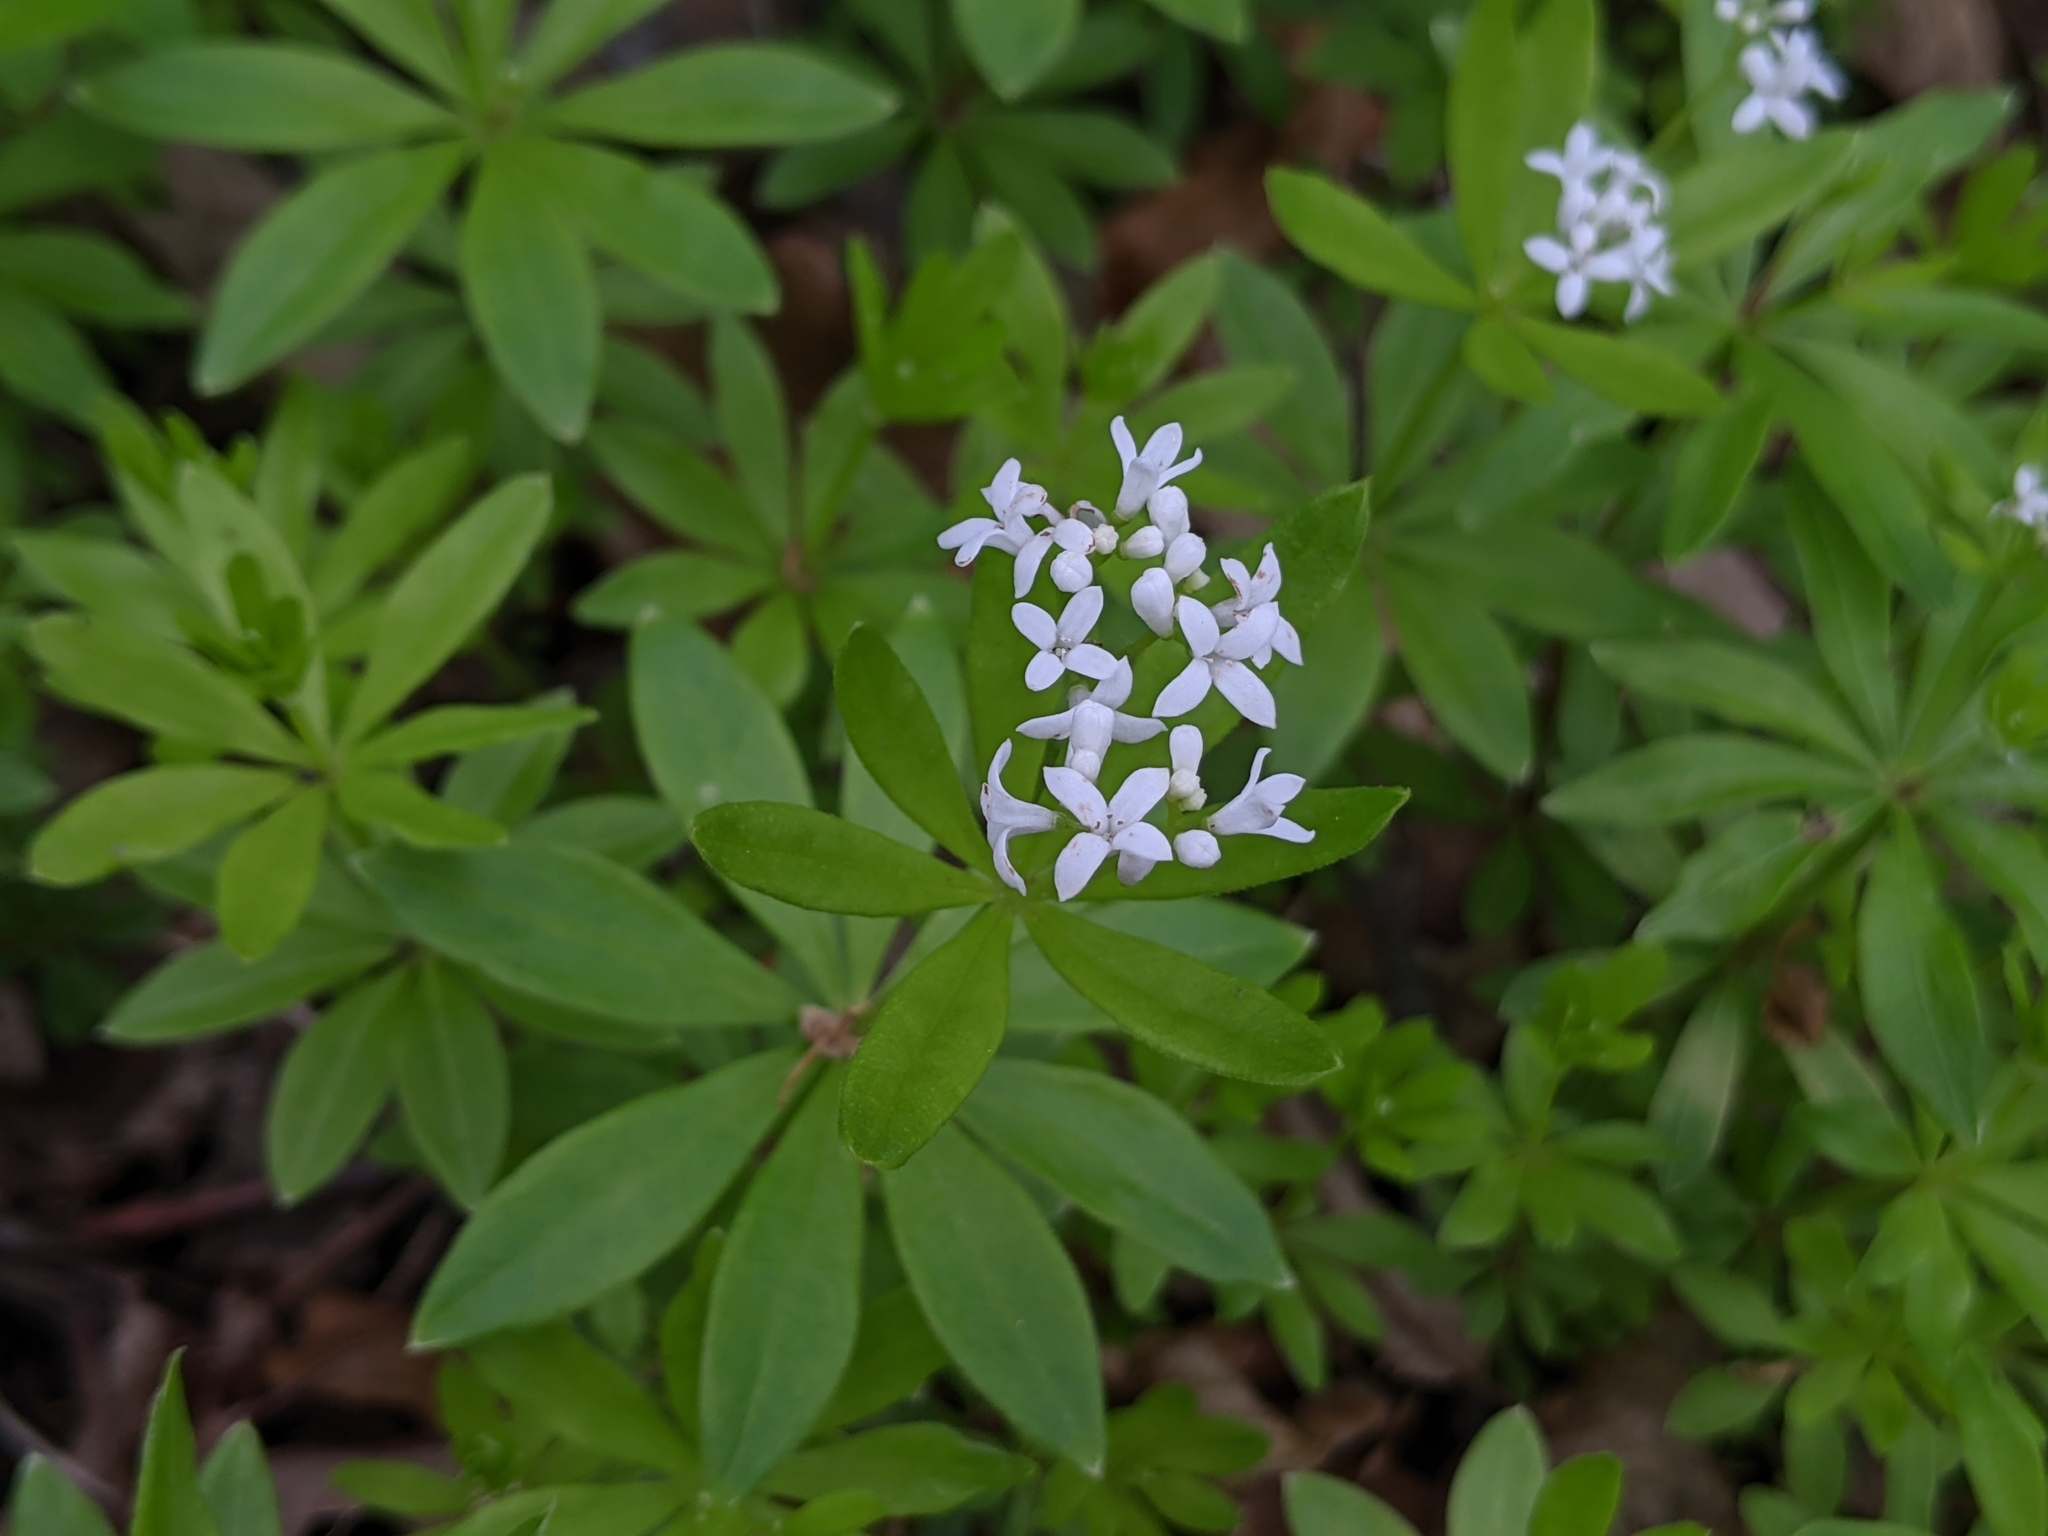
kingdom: Plantae
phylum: Tracheophyta
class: Magnoliopsida
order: Gentianales
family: Rubiaceae
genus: Galium
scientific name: Galium odoratum
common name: Sweet woodruff
